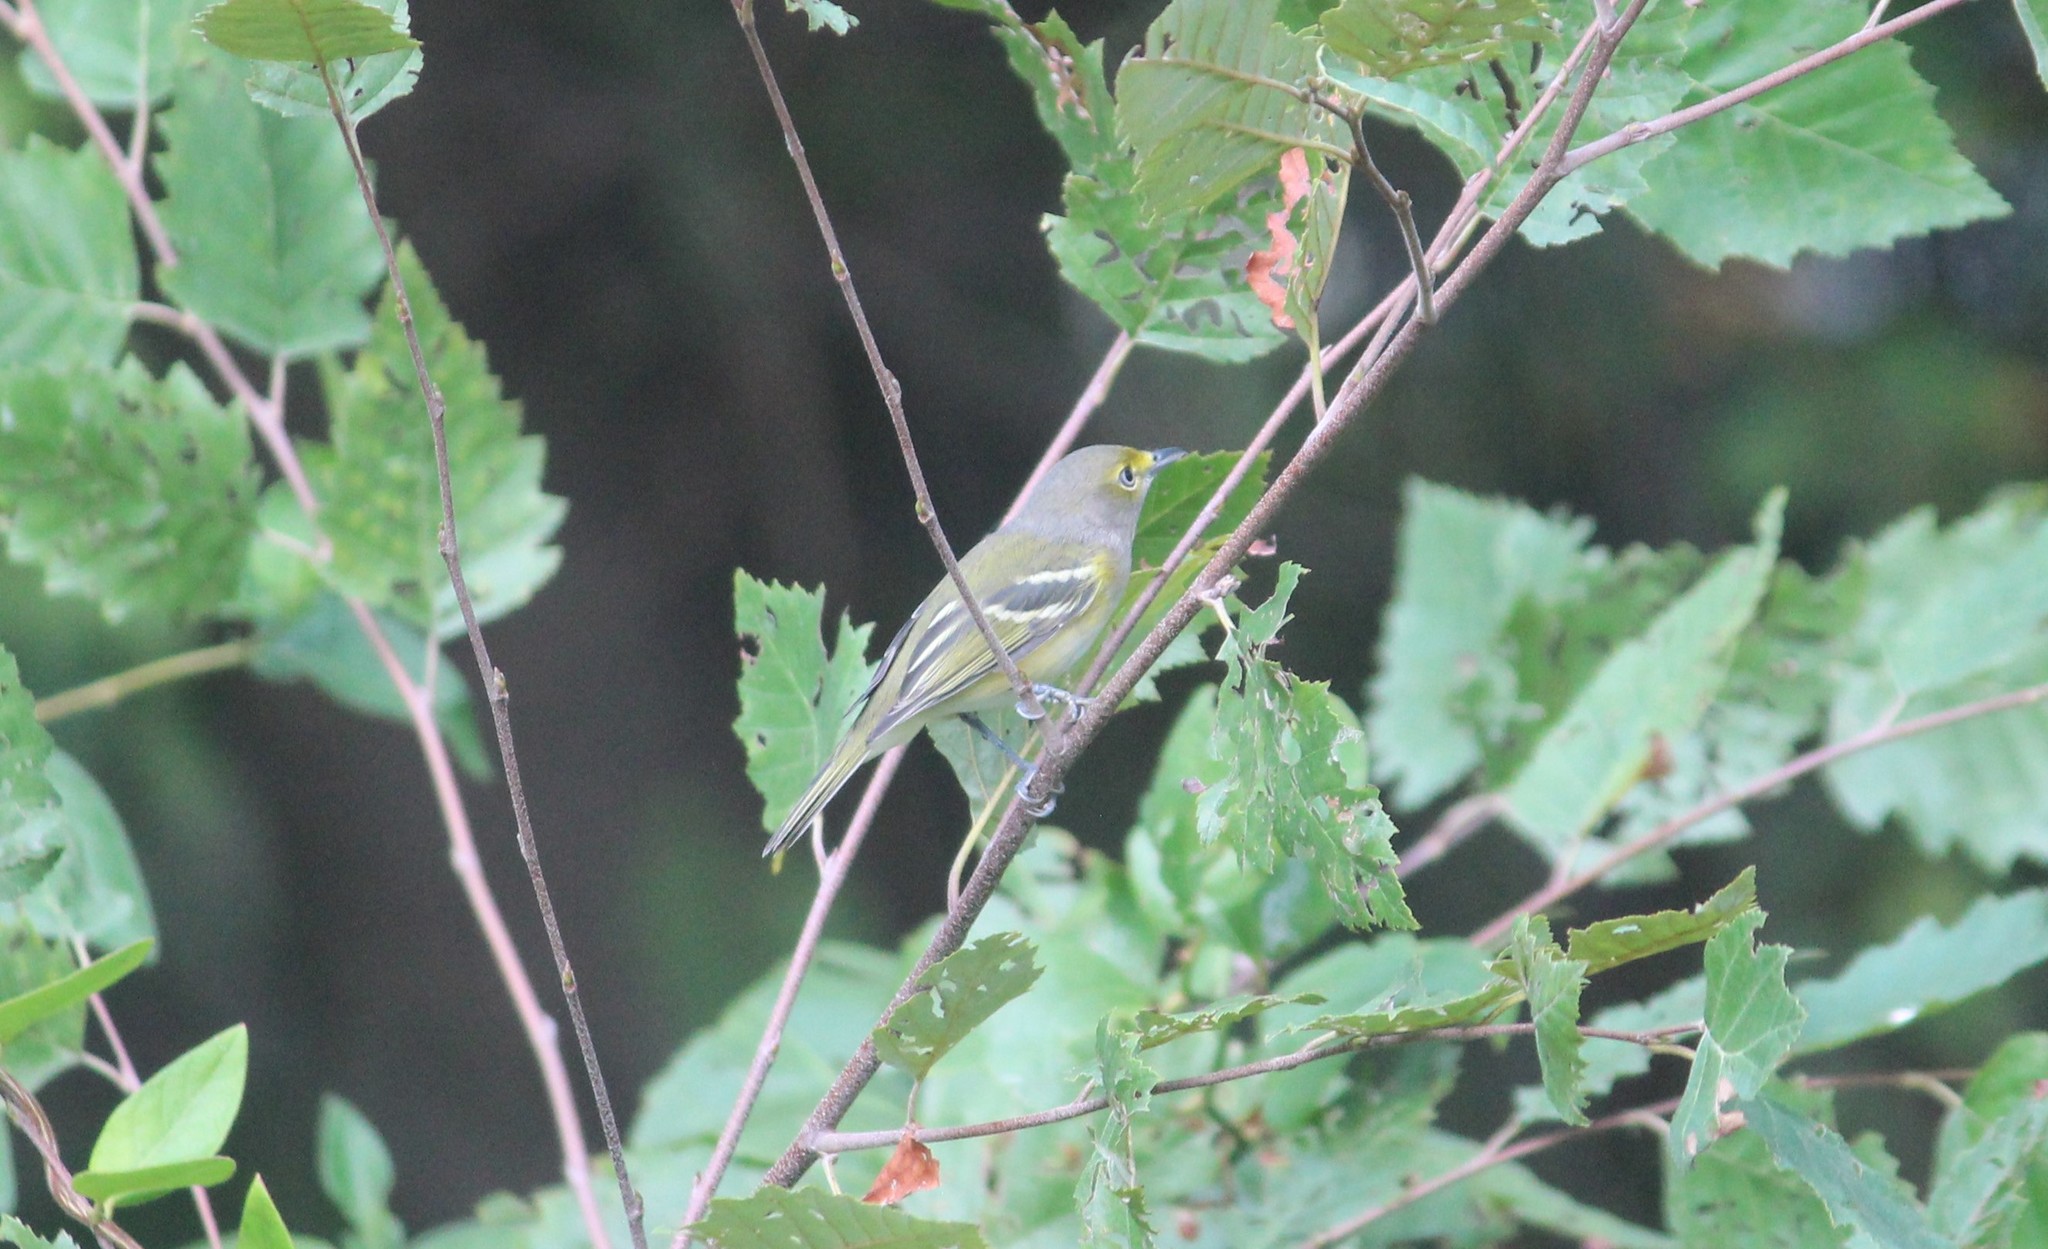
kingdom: Animalia
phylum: Chordata
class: Aves
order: Passeriformes
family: Vireonidae
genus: Vireo
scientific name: Vireo griseus
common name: White-eyed vireo
